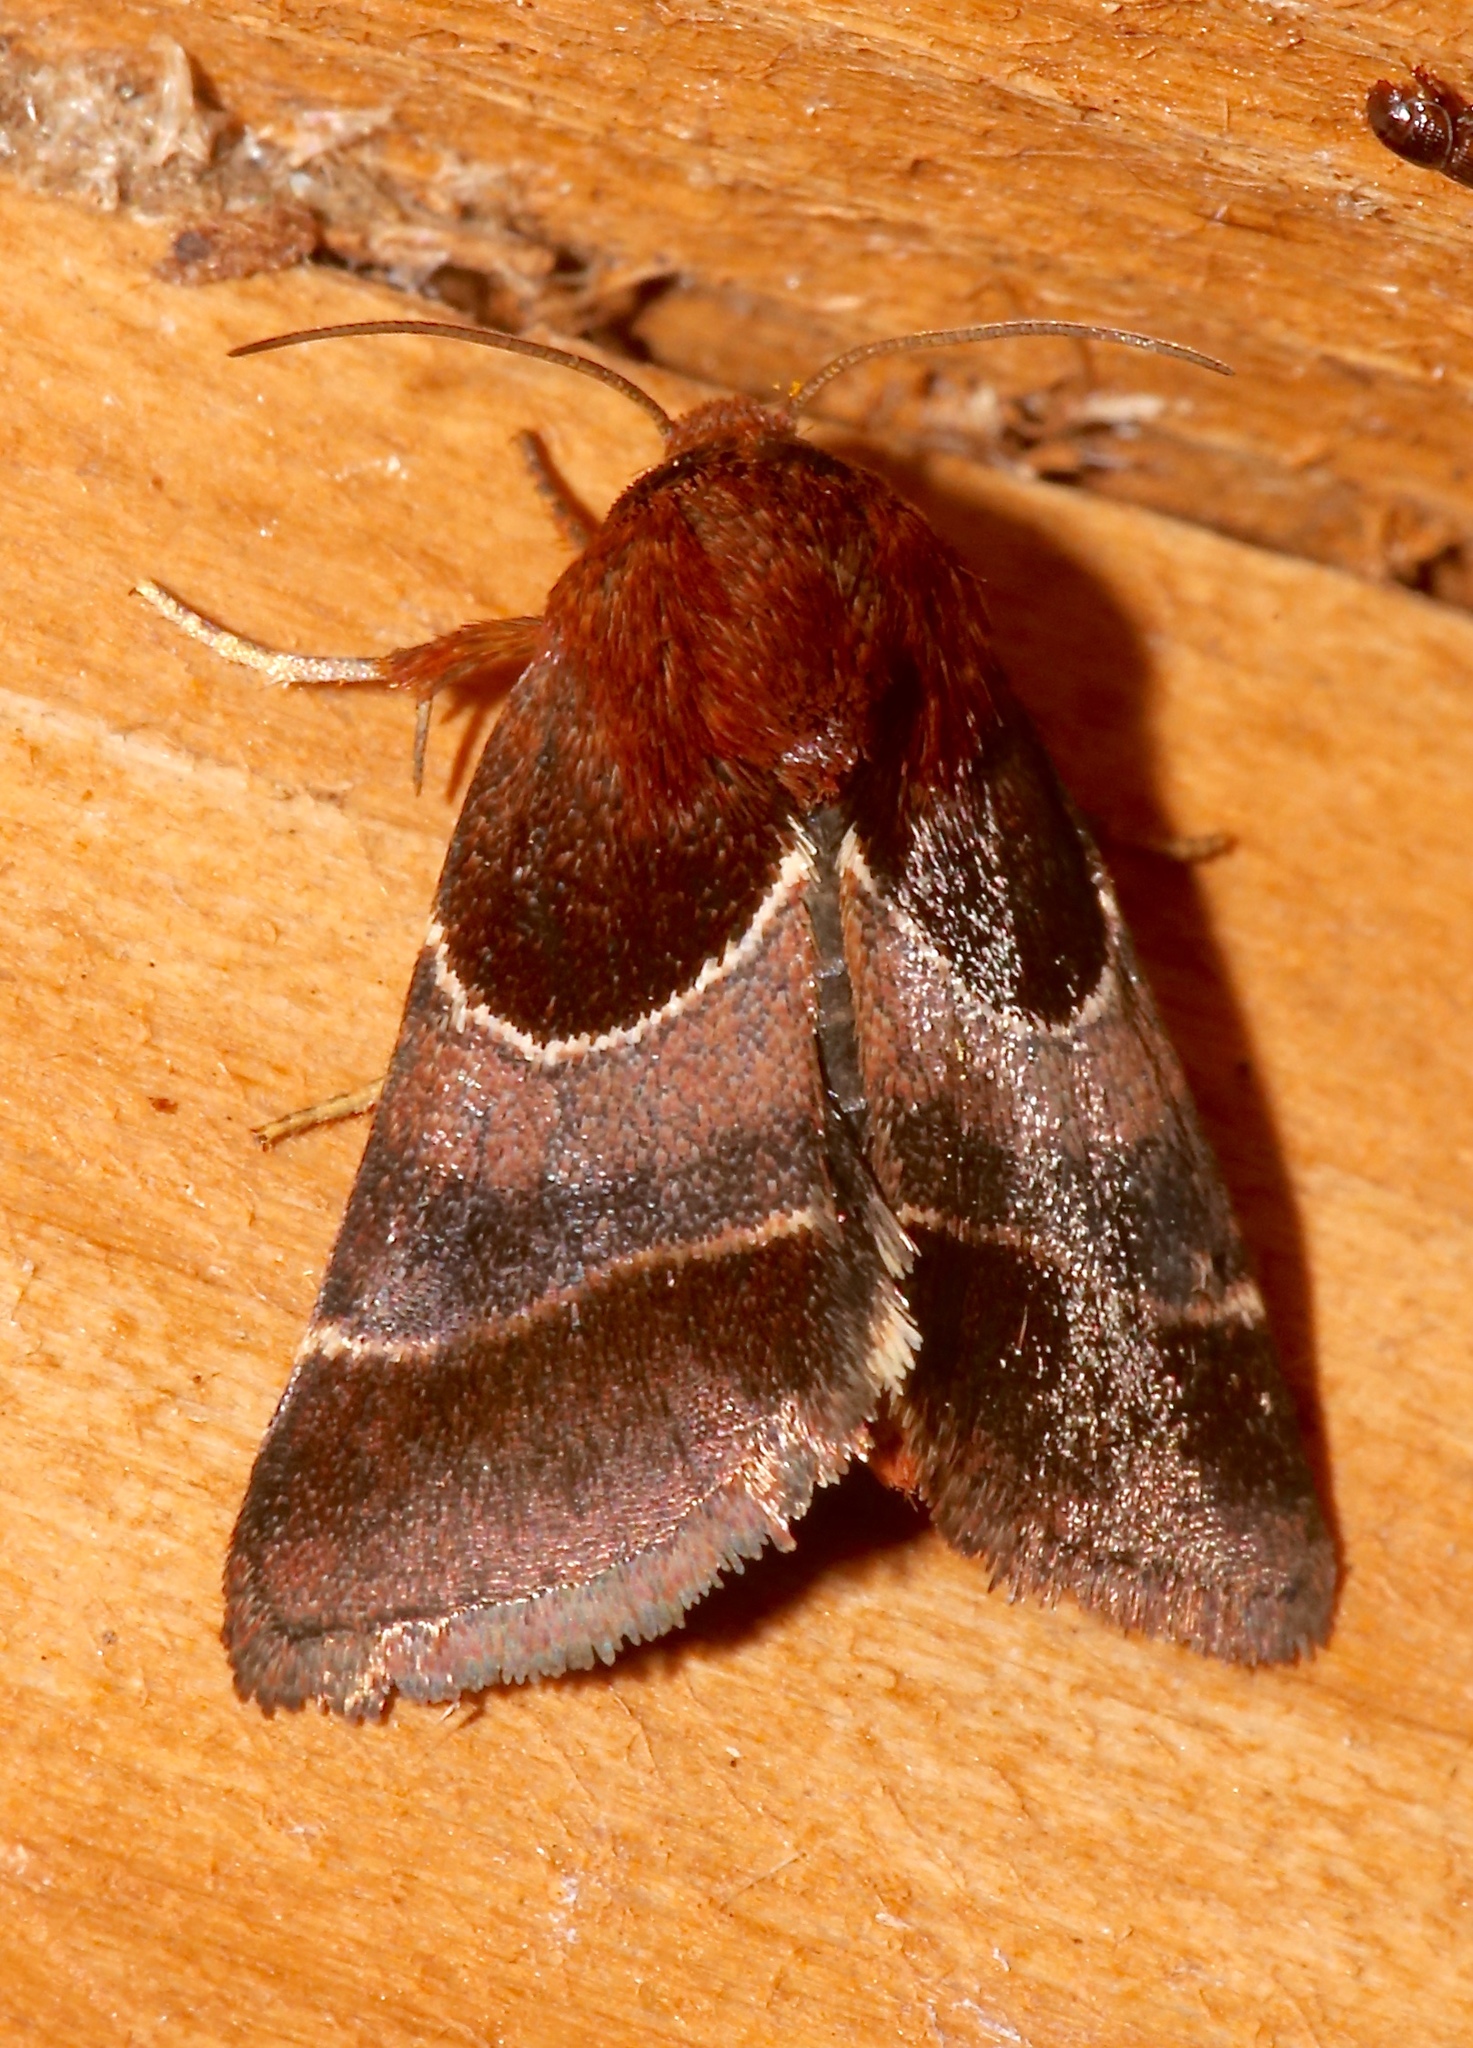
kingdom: Animalia
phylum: Arthropoda
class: Insecta
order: Lepidoptera
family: Noctuidae
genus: Schinia
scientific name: Schinia arcigera
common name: Arcigera flower moth
